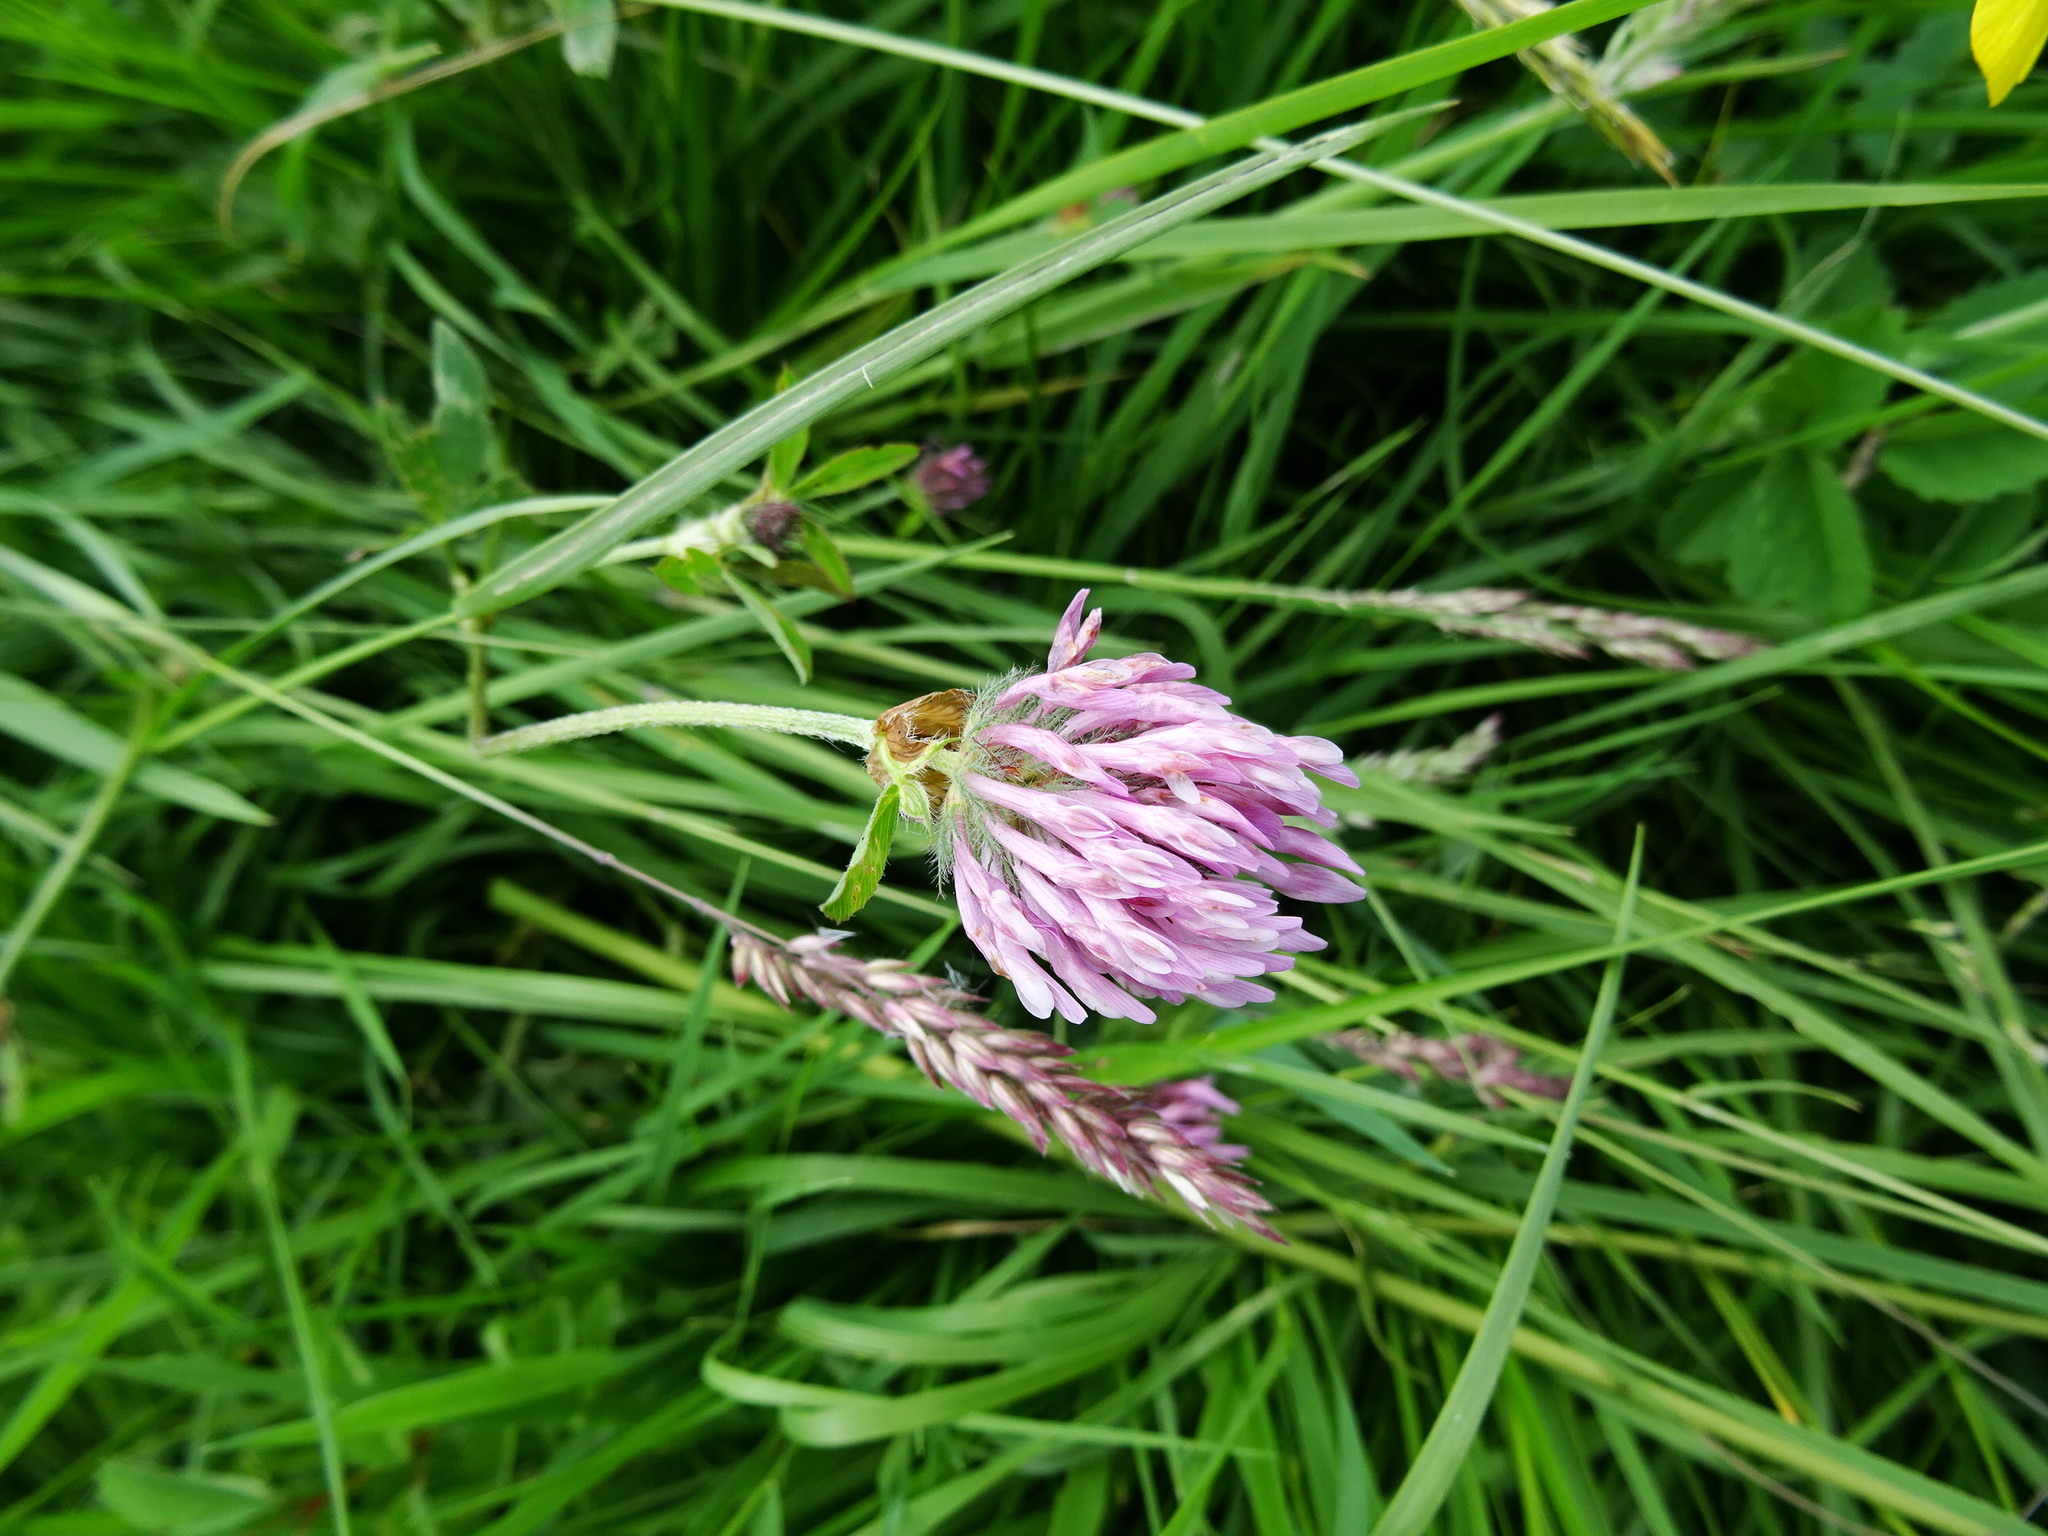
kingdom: Plantae
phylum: Tracheophyta
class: Magnoliopsida
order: Fabales
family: Fabaceae
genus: Trifolium
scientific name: Trifolium pratense
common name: Red clover
